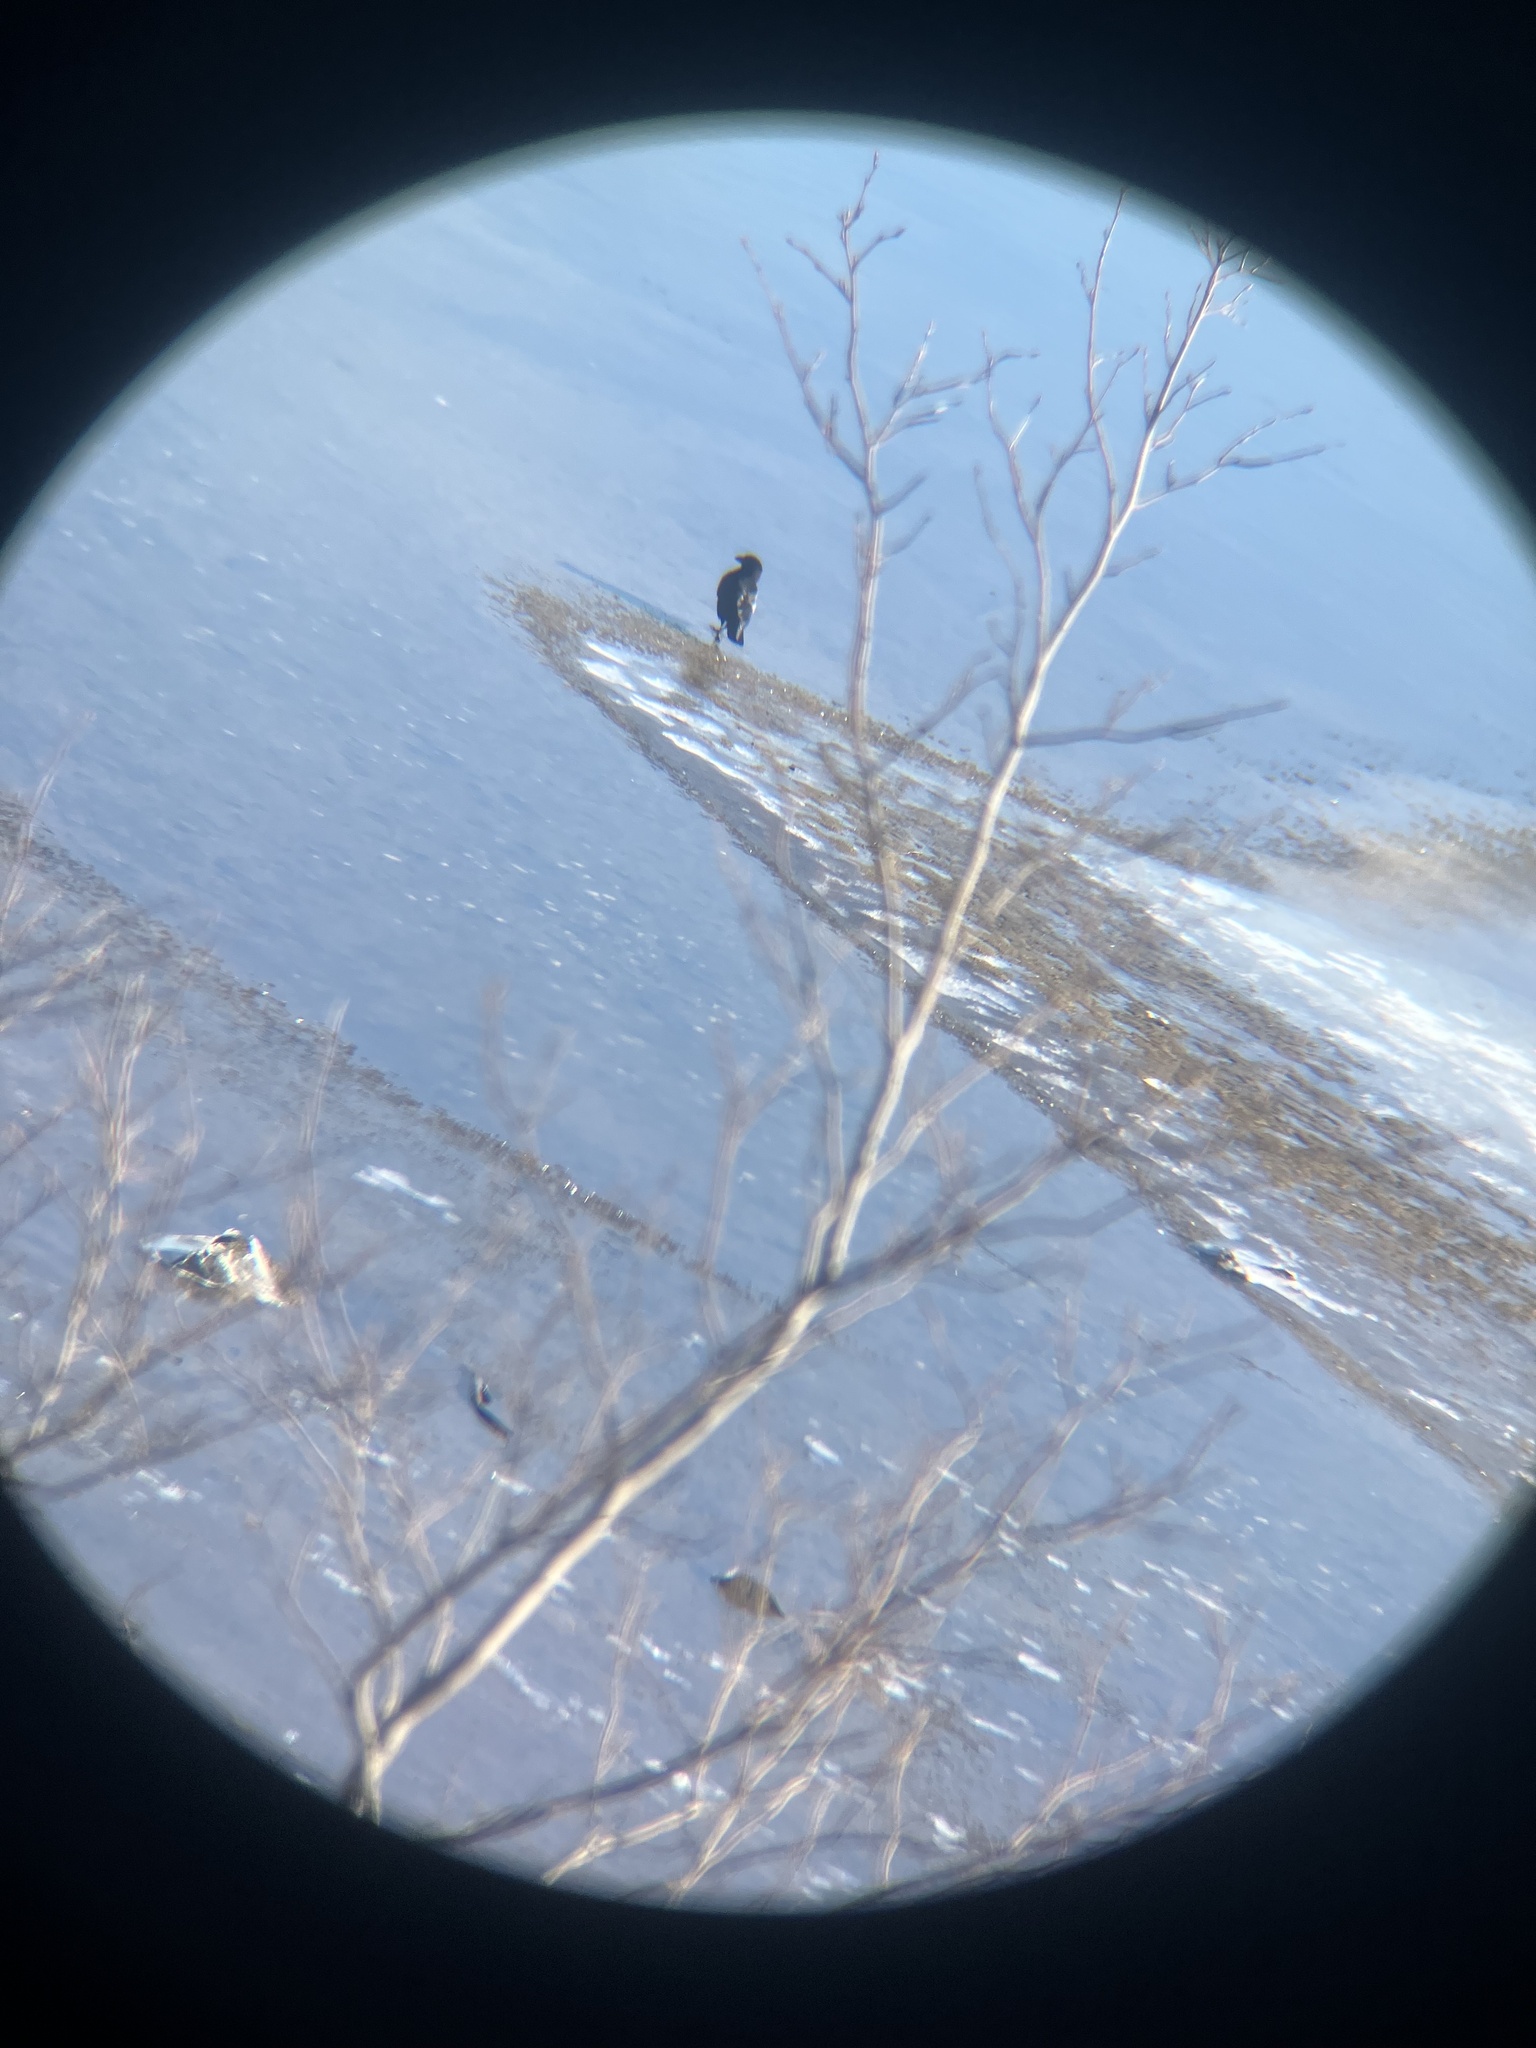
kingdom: Animalia
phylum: Chordata
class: Aves
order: Passeriformes
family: Corvidae
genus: Corvus
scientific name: Corvus brachyrhynchos
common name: American crow
